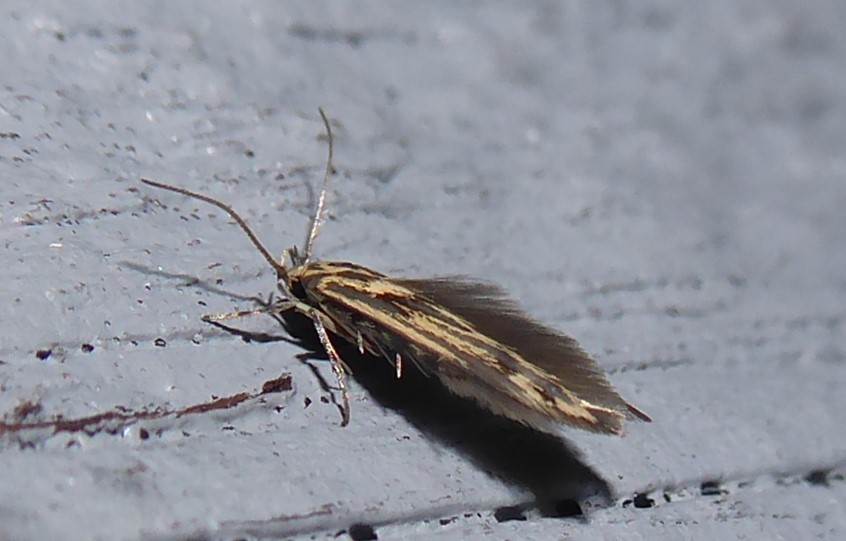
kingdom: Animalia
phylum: Arthropoda
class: Insecta
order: Lepidoptera
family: Stathmopodidae
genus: Stathmopoda
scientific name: Stathmopoda plumbiflua
